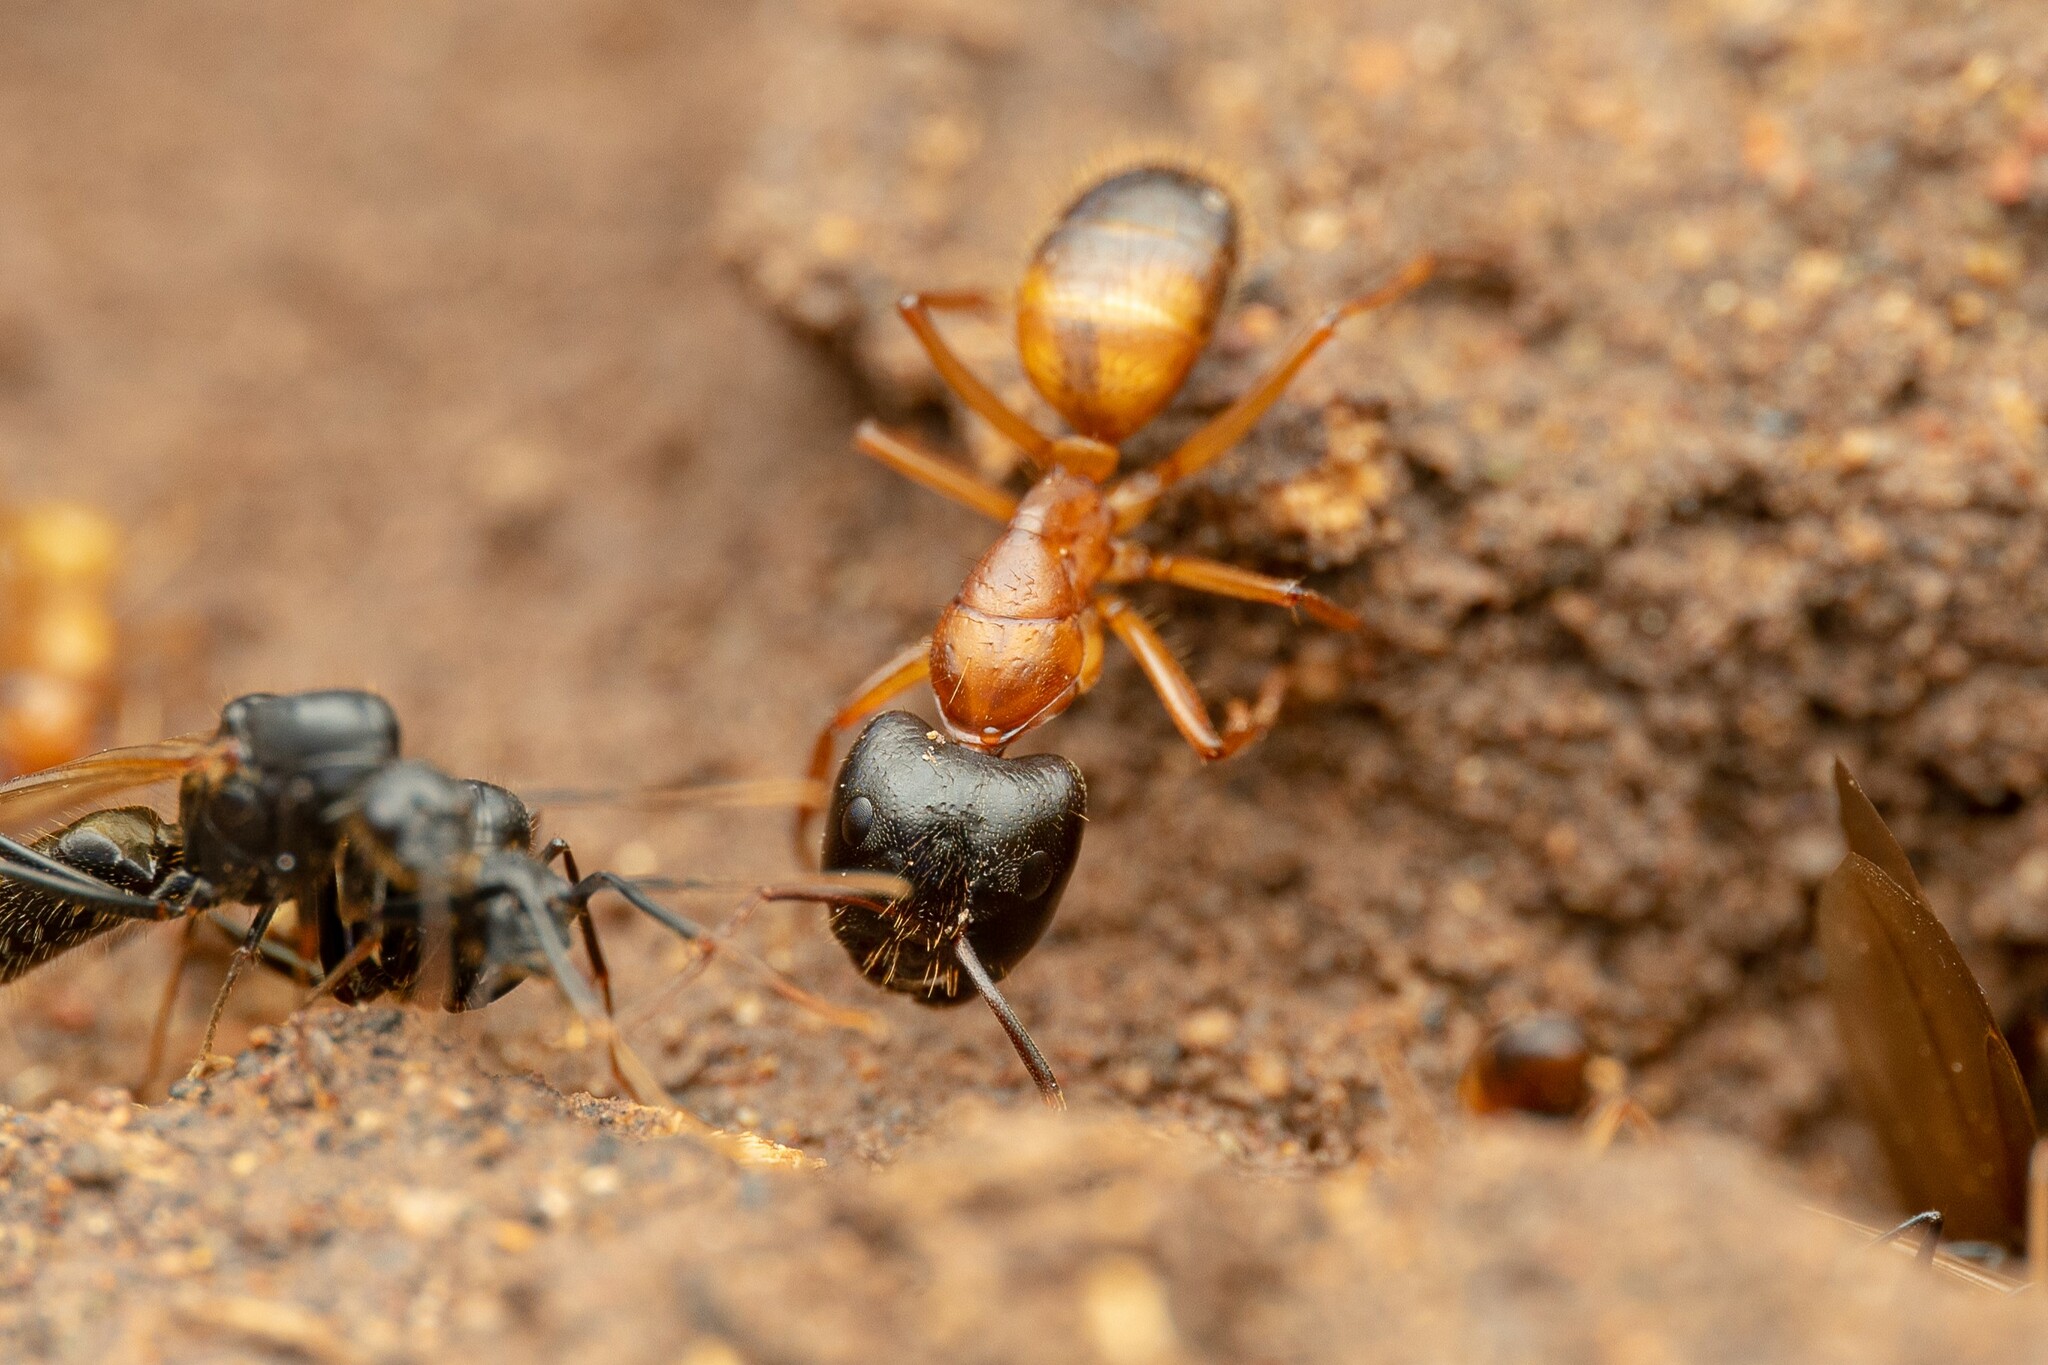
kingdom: Animalia
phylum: Arthropoda
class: Insecta
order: Hymenoptera
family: Formicidae
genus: Camponotus
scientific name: Camponotus sansabeanus
